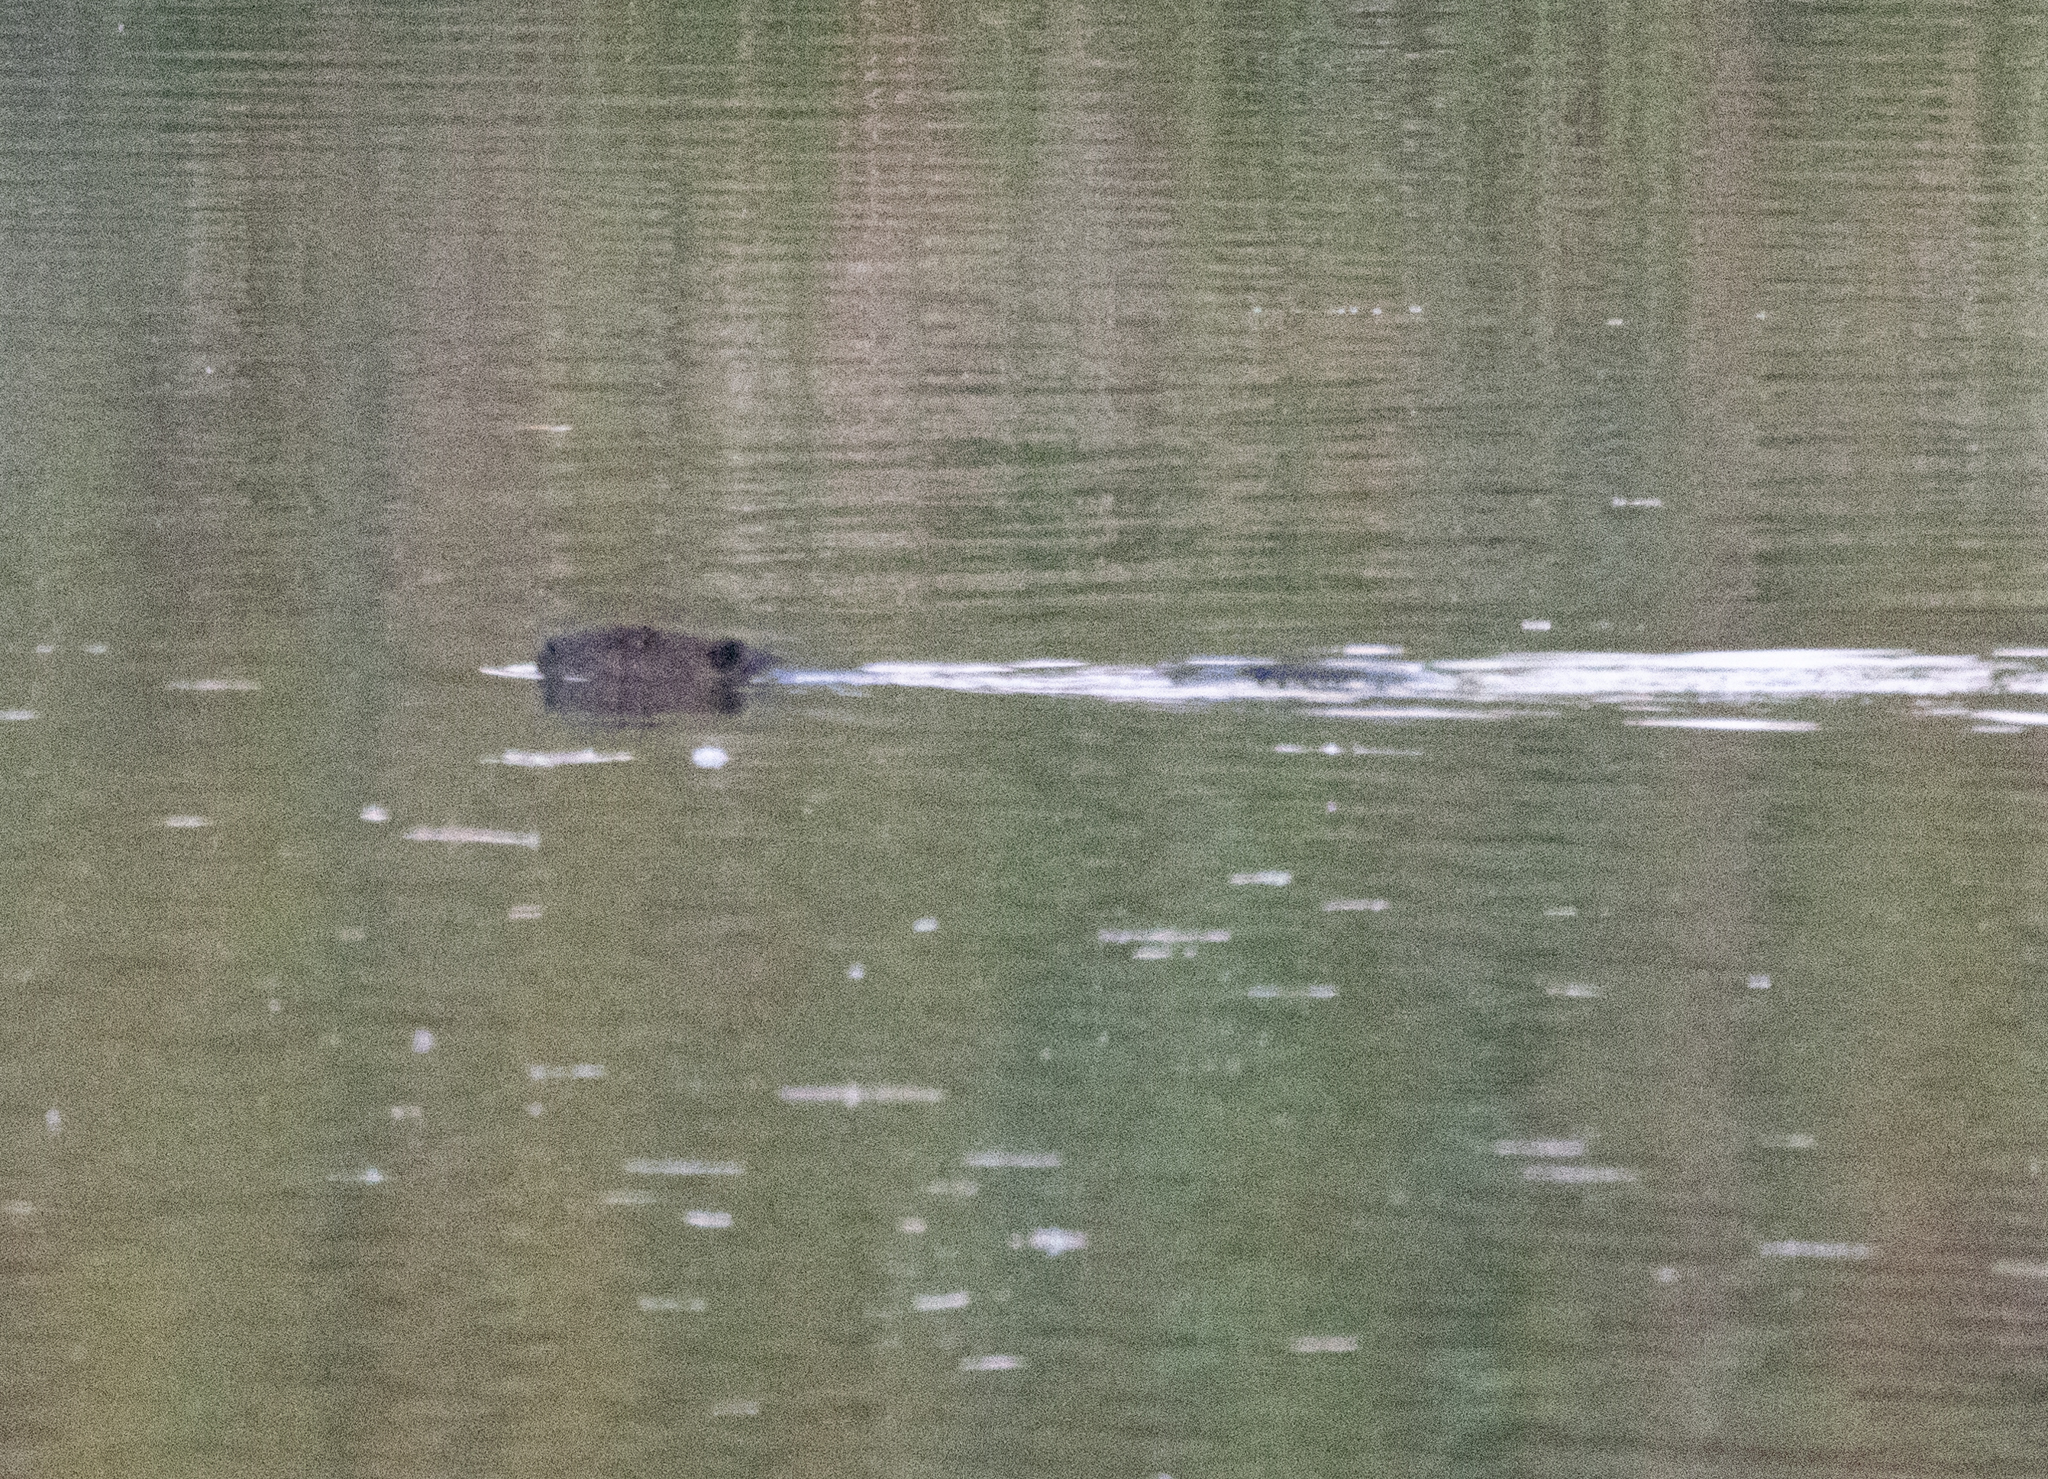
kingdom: Animalia
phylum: Chordata
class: Mammalia
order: Rodentia
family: Castoridae
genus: Castor
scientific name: Castor canadensis
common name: American beaver
